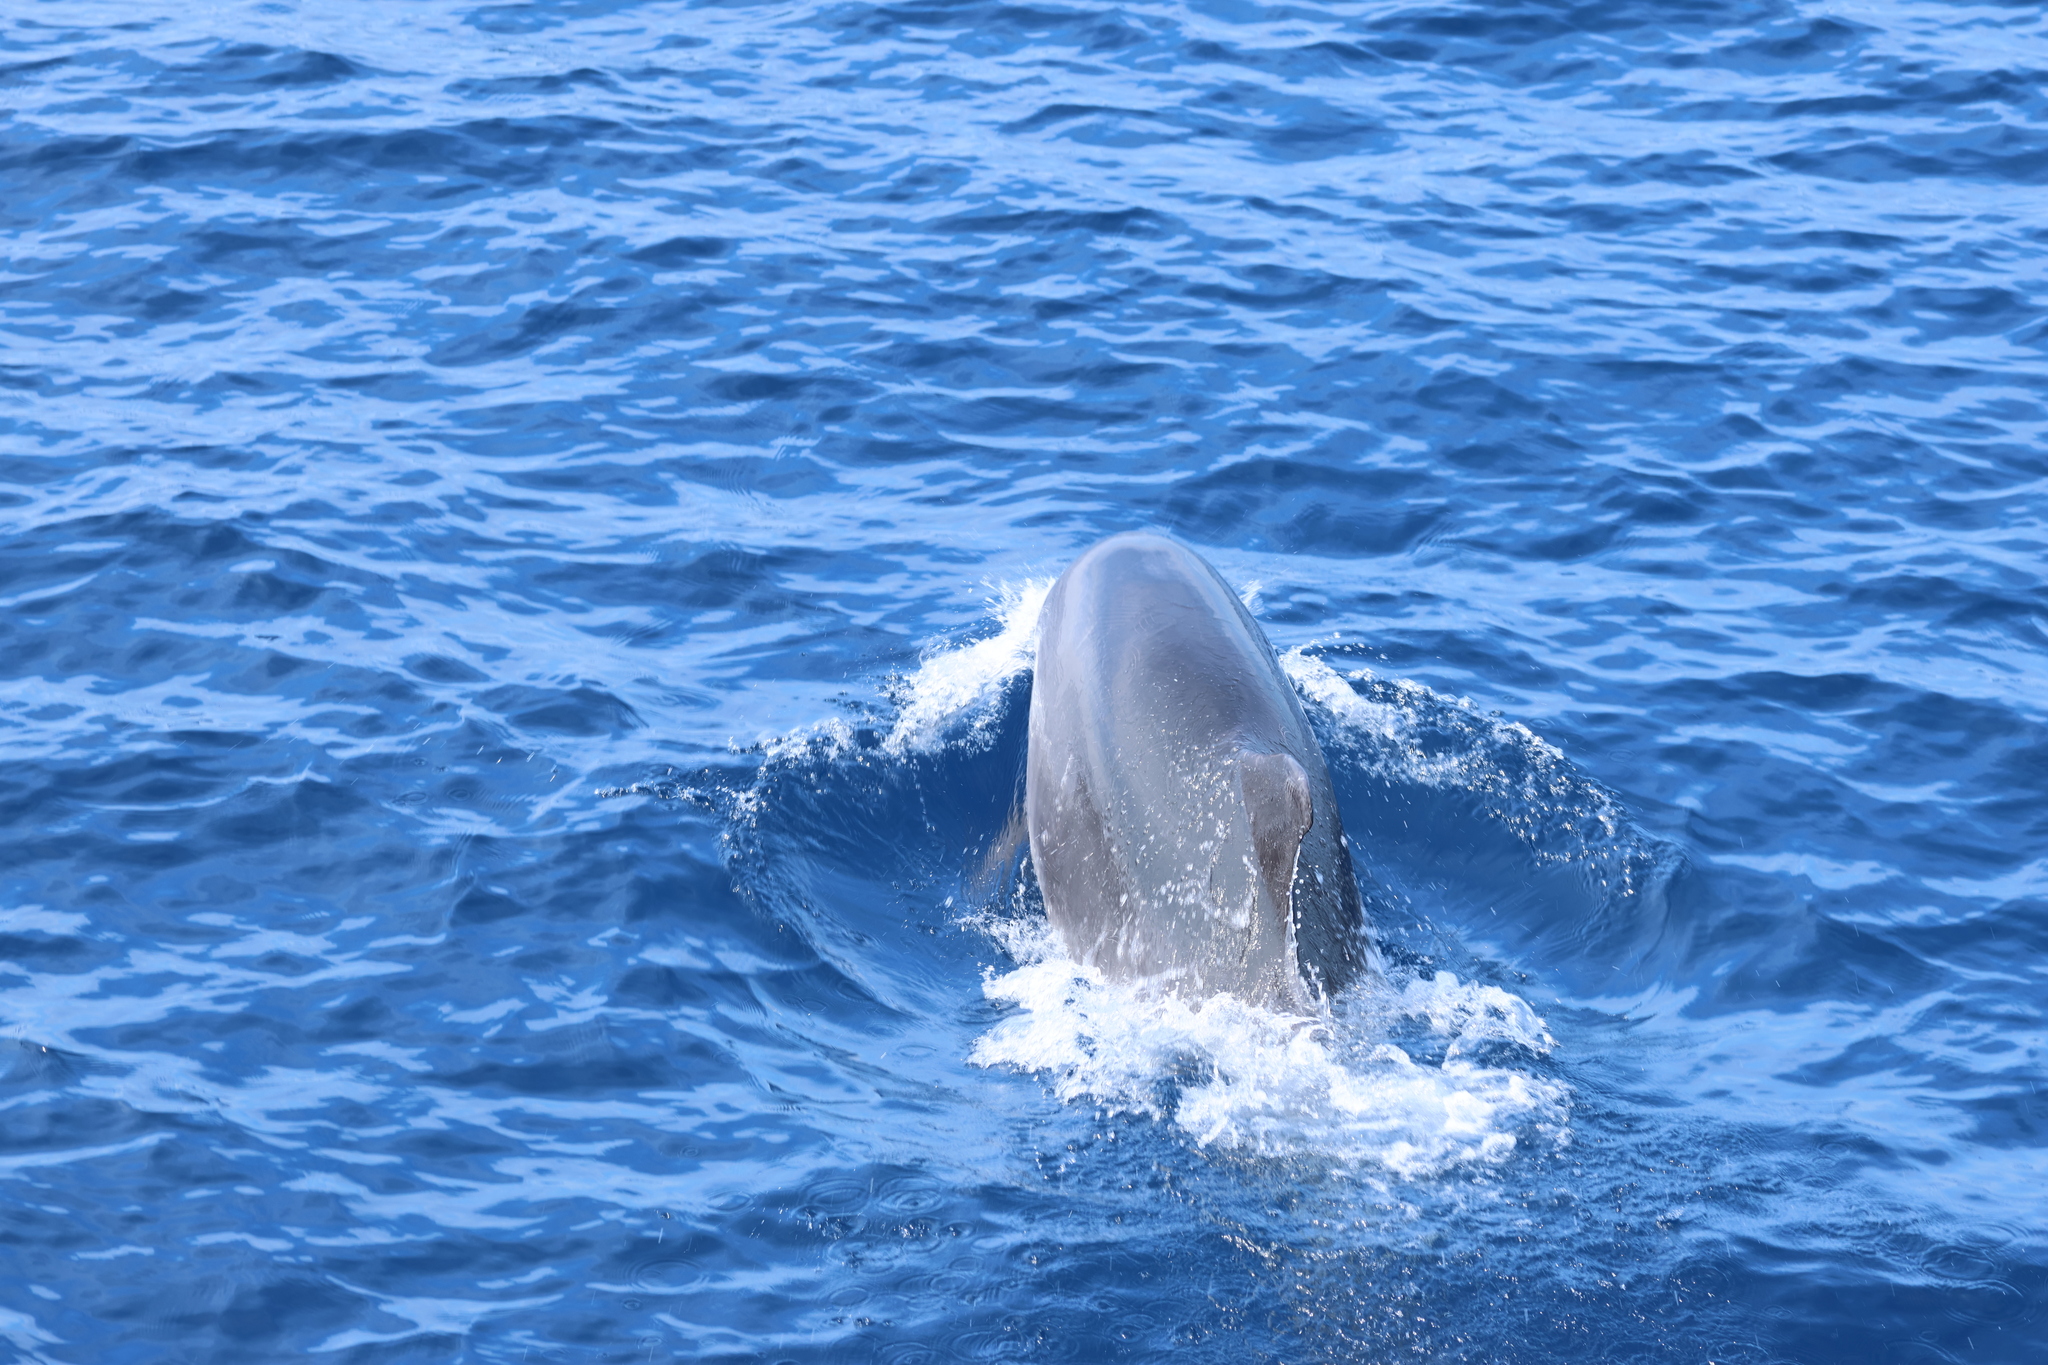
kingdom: Animalia
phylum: Chordata
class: Mammalia
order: Cetacea
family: Delphinidae
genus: Tursiops
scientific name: Tursiops truncatus
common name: Bottlenose dolphin
